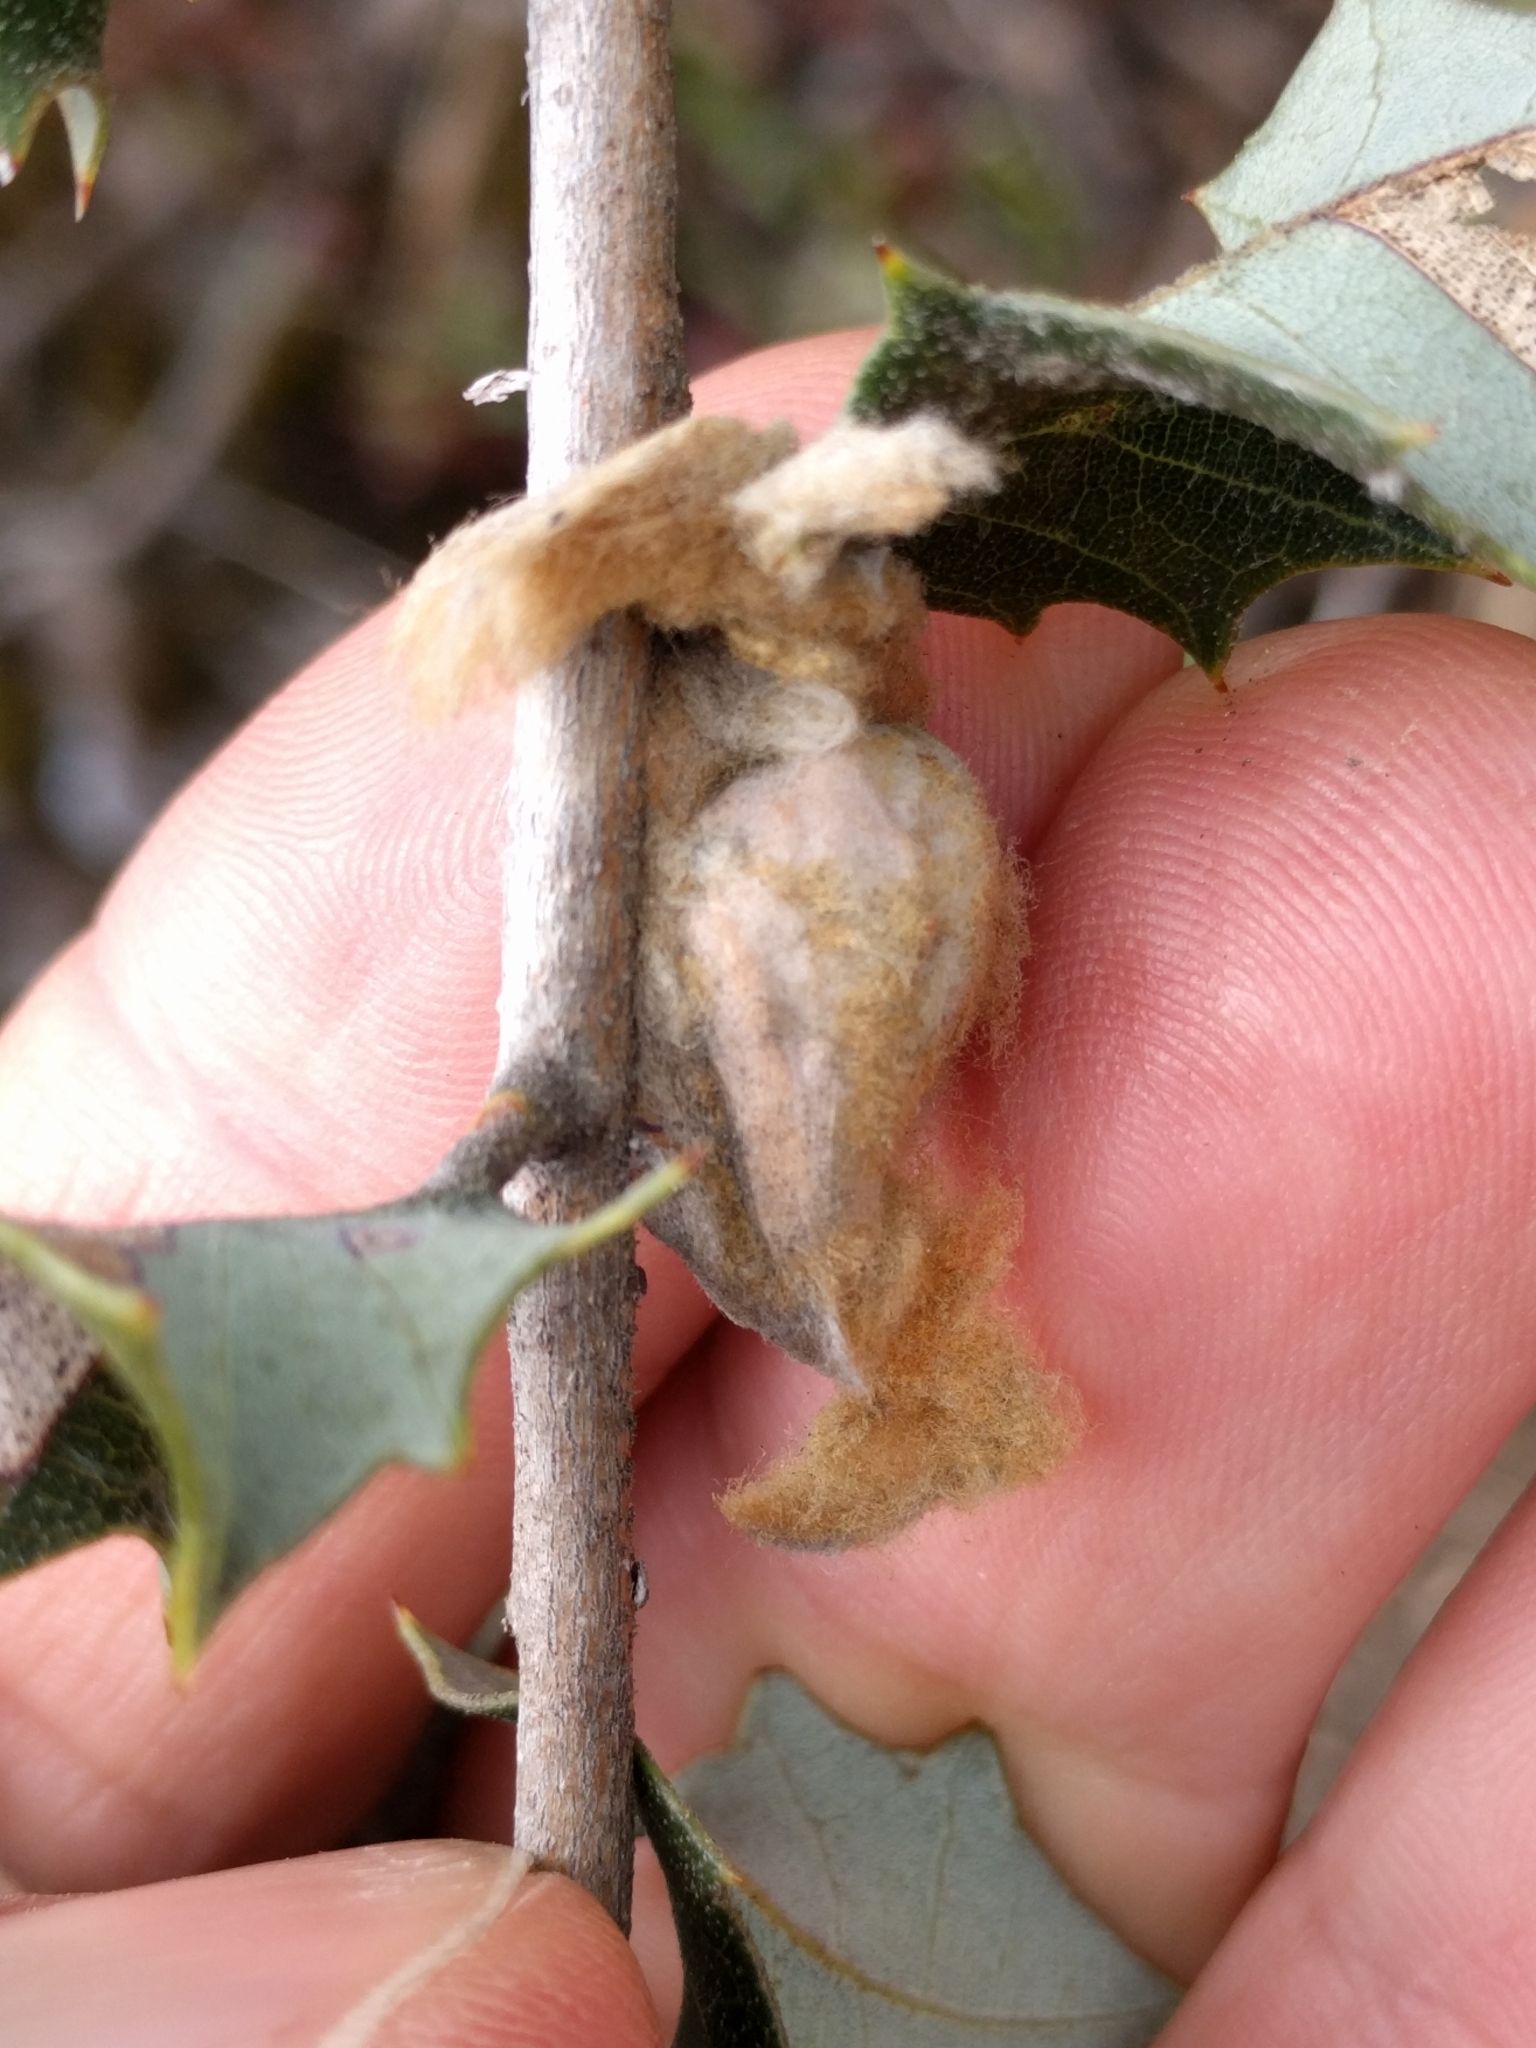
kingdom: Animalia
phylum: Arthropoda
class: Insecta
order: Hymenoptera
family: Cynipidae
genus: Heteroecus
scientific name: Heteroecus
